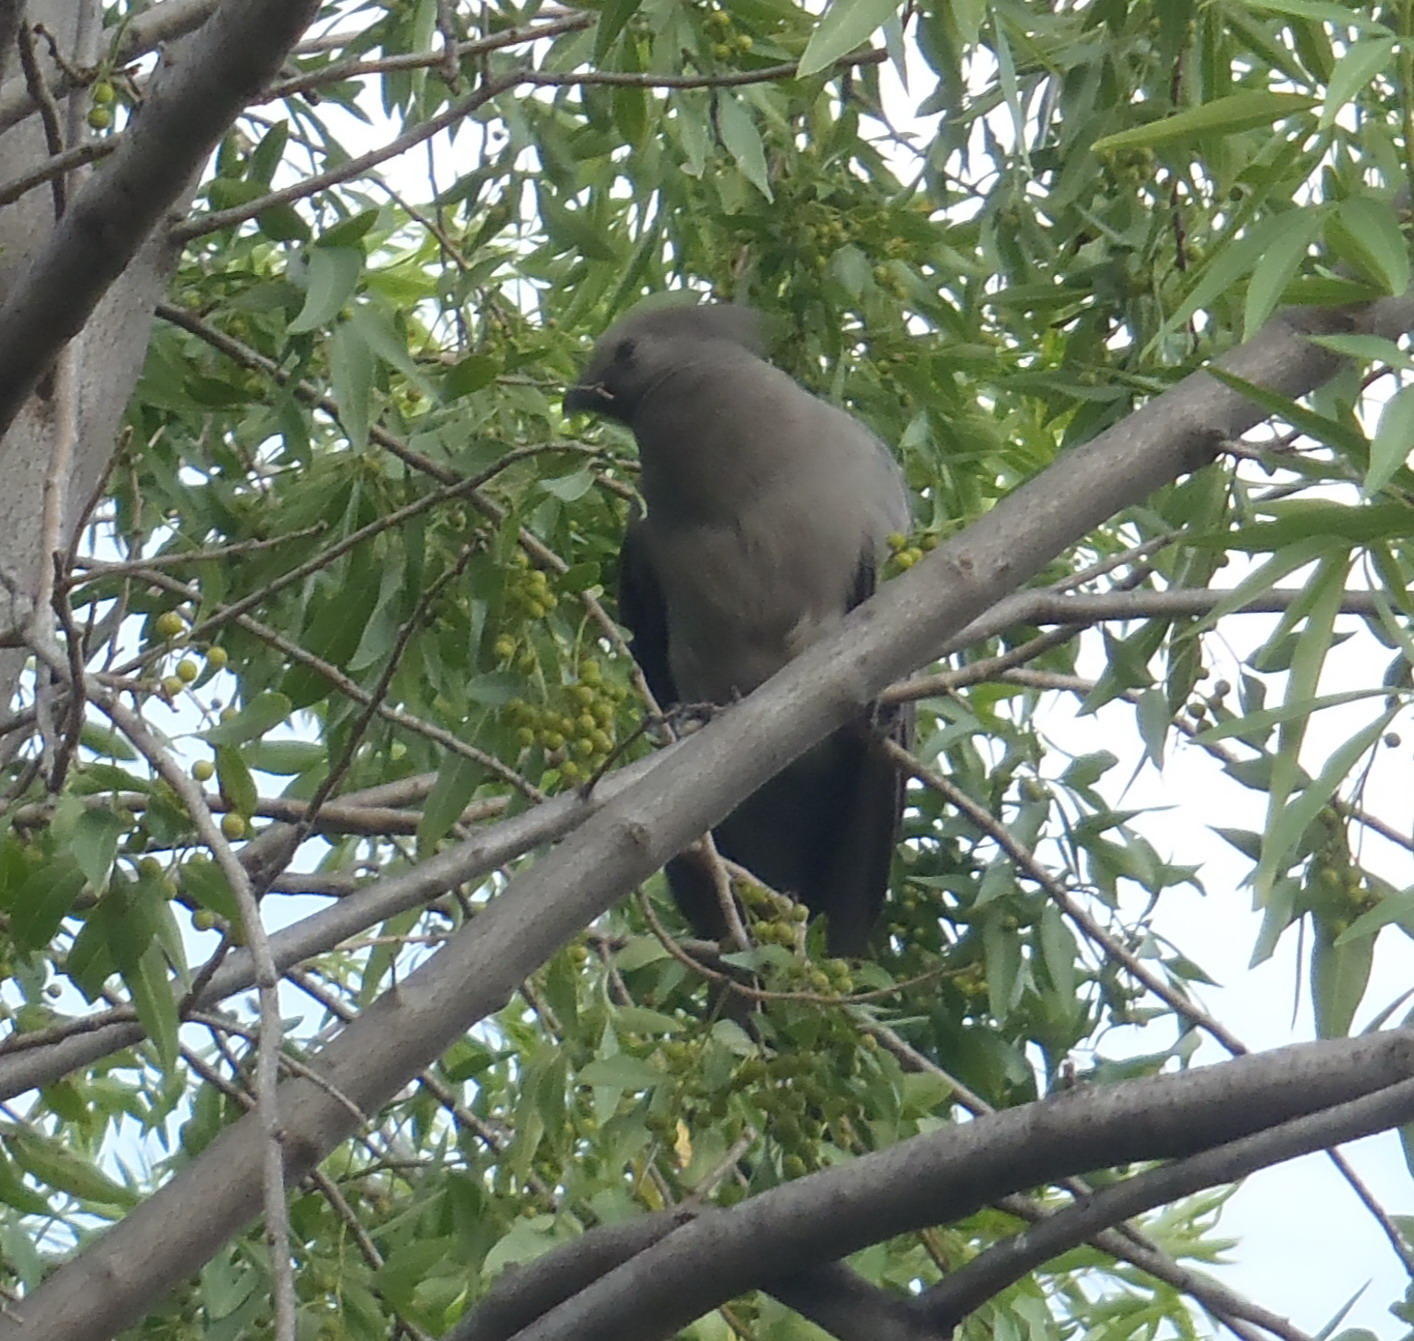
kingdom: Animalia
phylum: Chordata
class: Aves
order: Musophagiformes
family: Musophagidae
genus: Corythaixoides
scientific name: Corythaixoides concolor
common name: Grey go-away-bird
